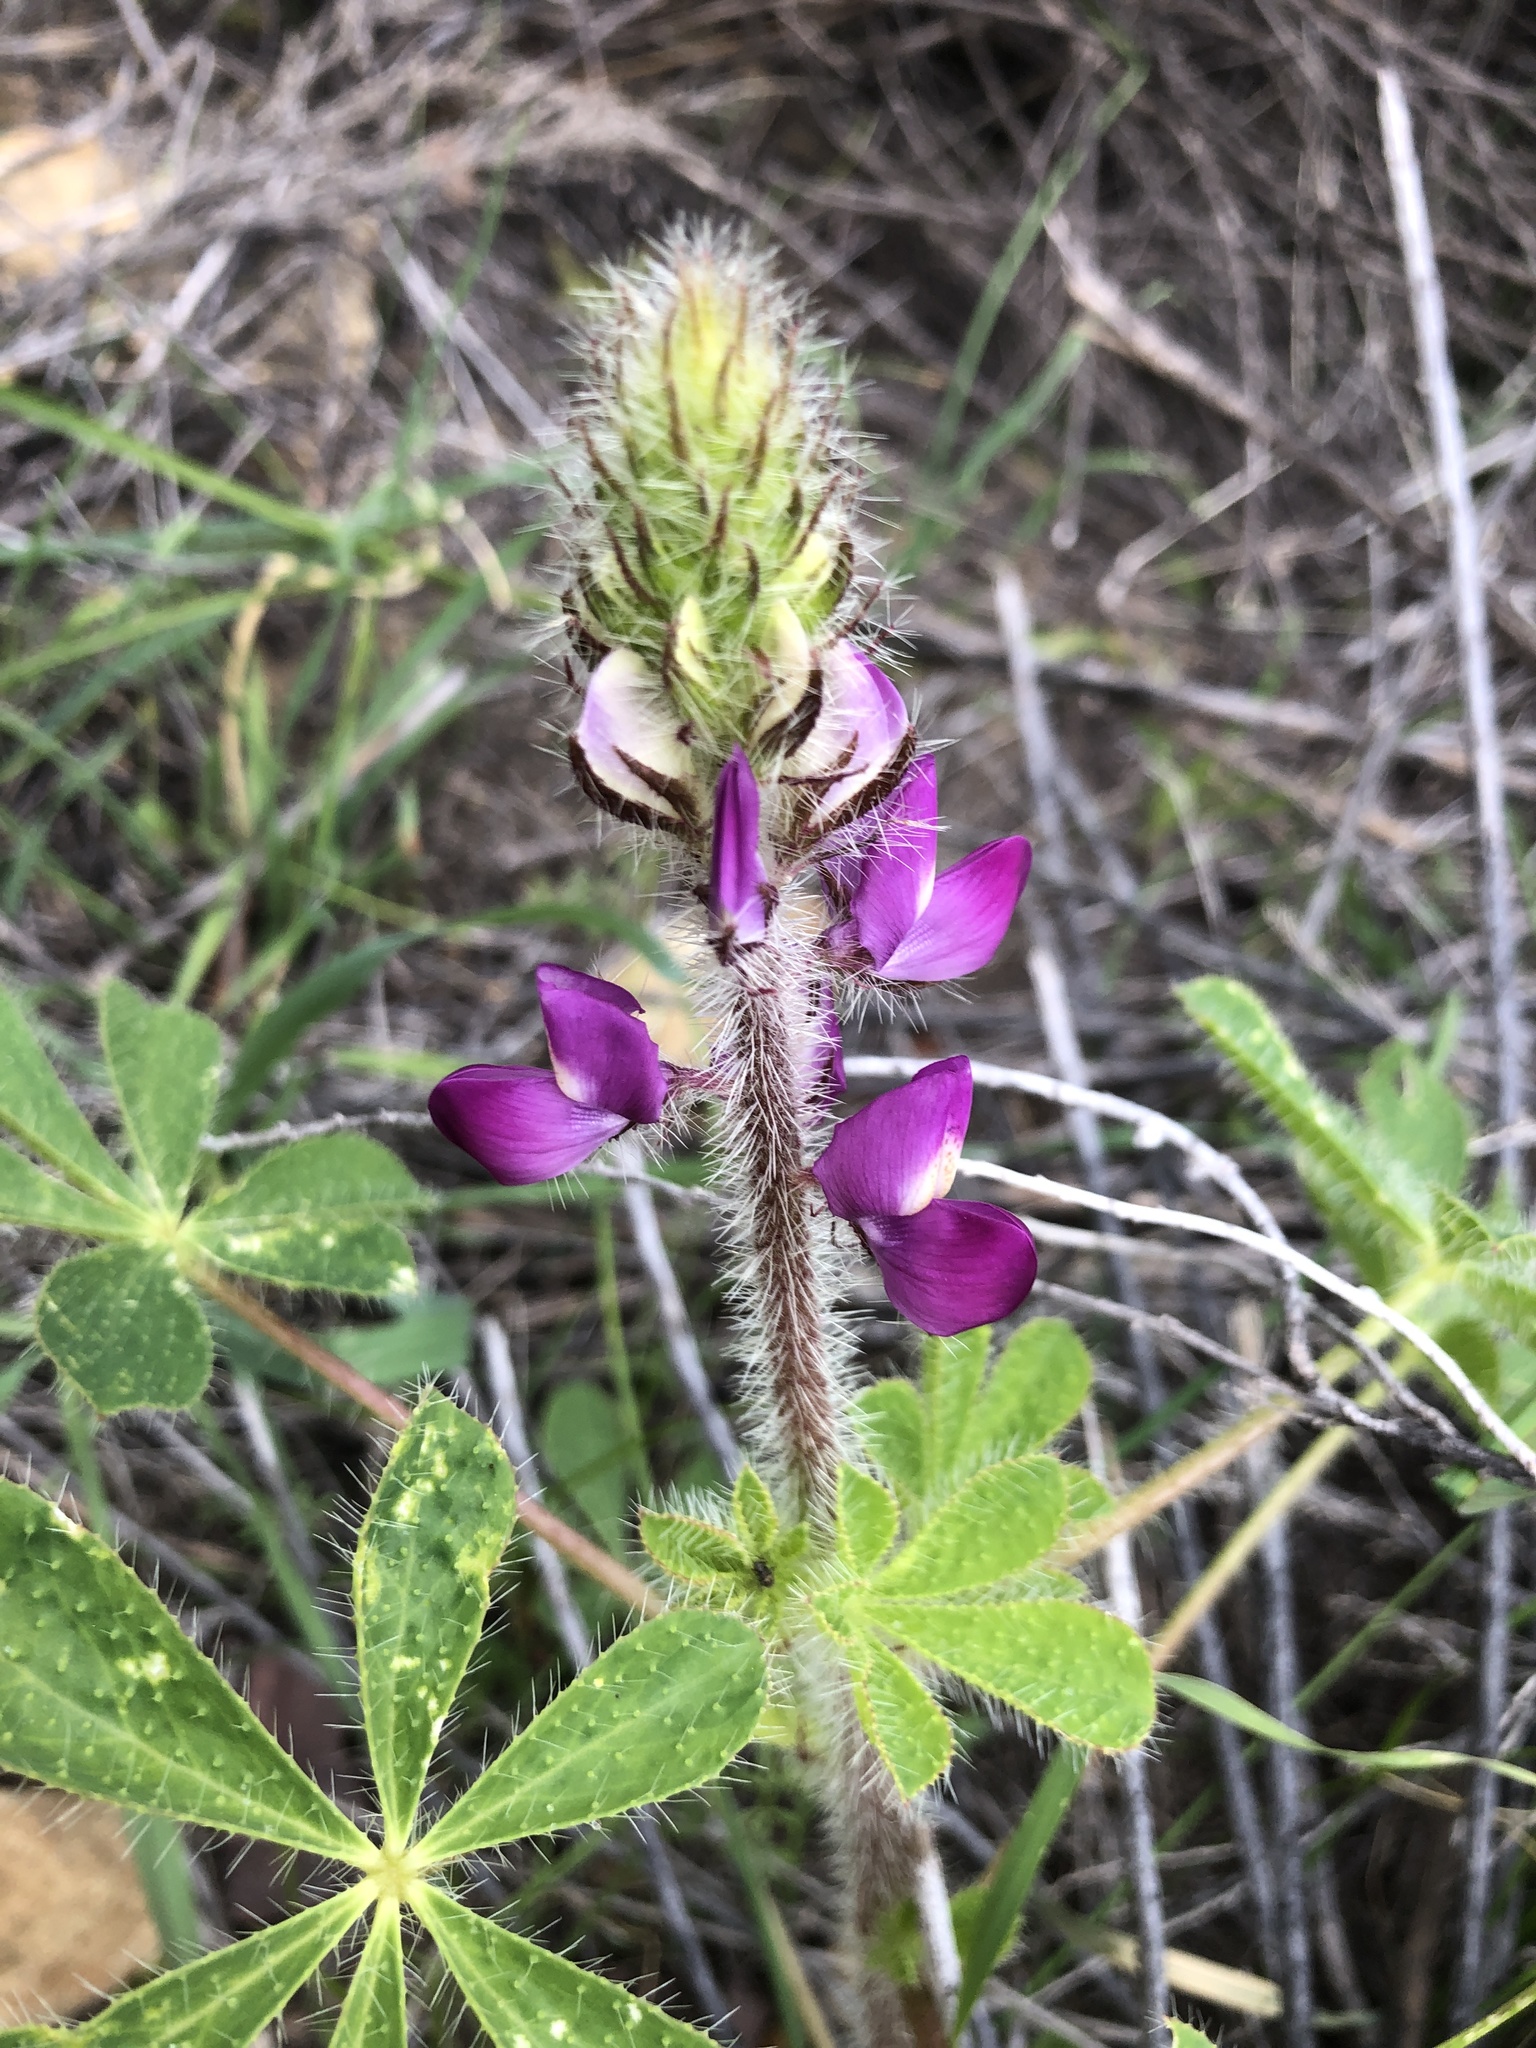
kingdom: Plantae
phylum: Tracheophyta
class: Magnoliopsida
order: Fabales
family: Fabaceae
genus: Lupinus
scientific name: Lupinus hirsutissimus
